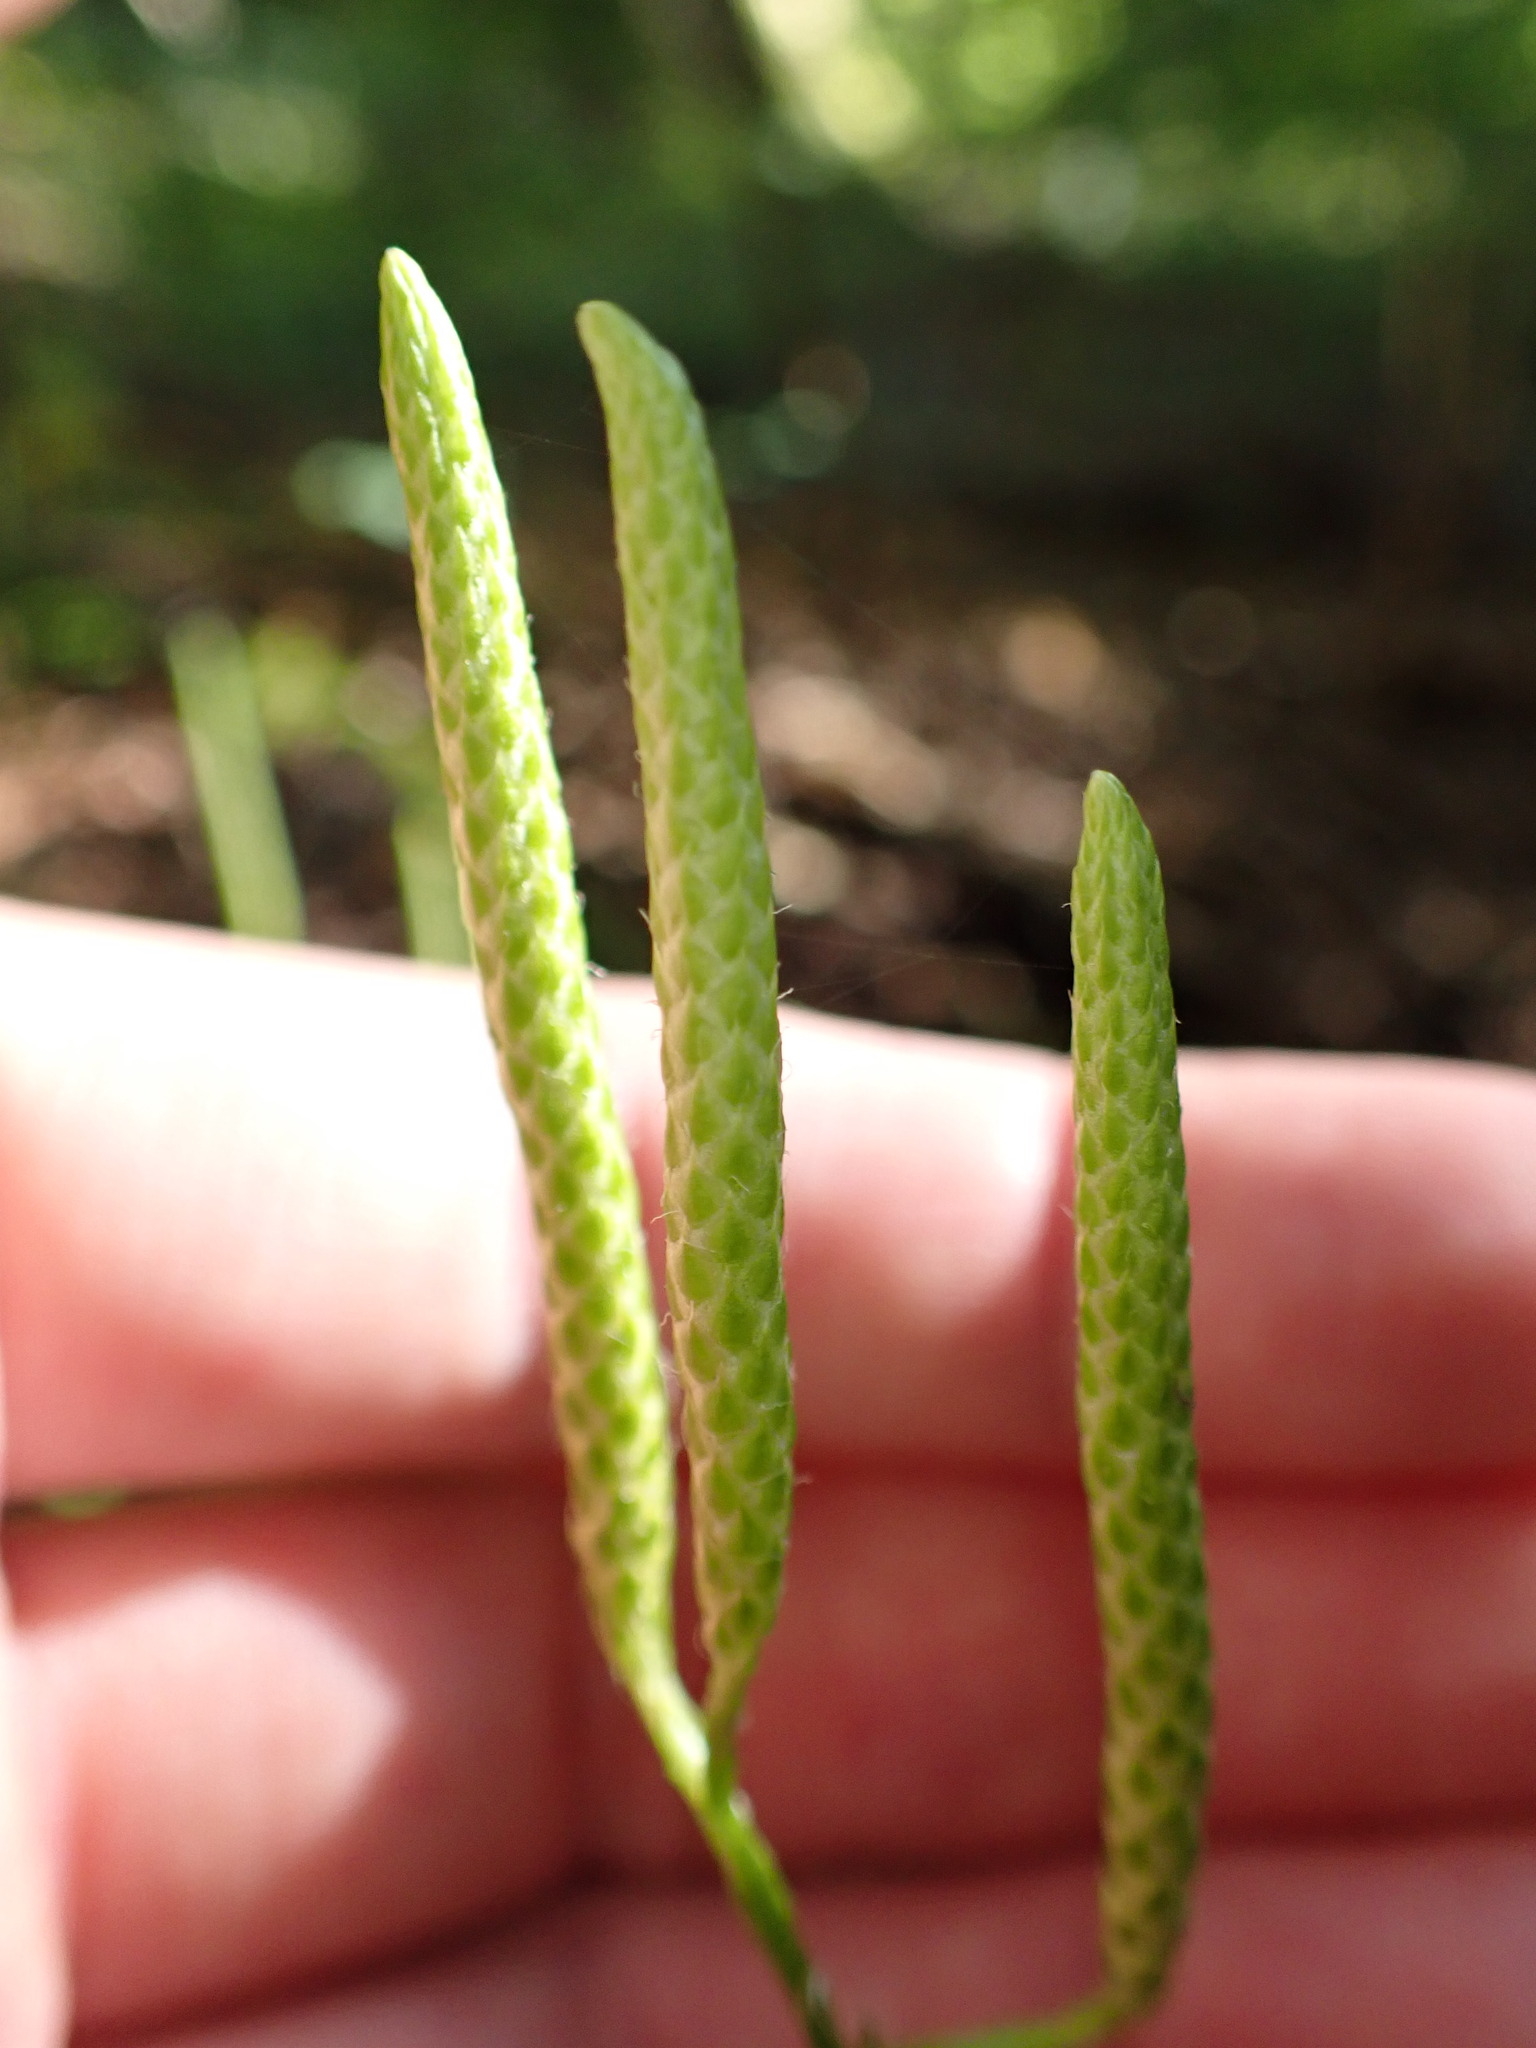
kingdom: Plantae
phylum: Tracheophyta
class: Lycopodiopsida
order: Lycopodiales
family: Lycopodiaceae
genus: Lycopodium
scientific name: Lycopodium clavatum
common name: Stag's-horn clubmoss
